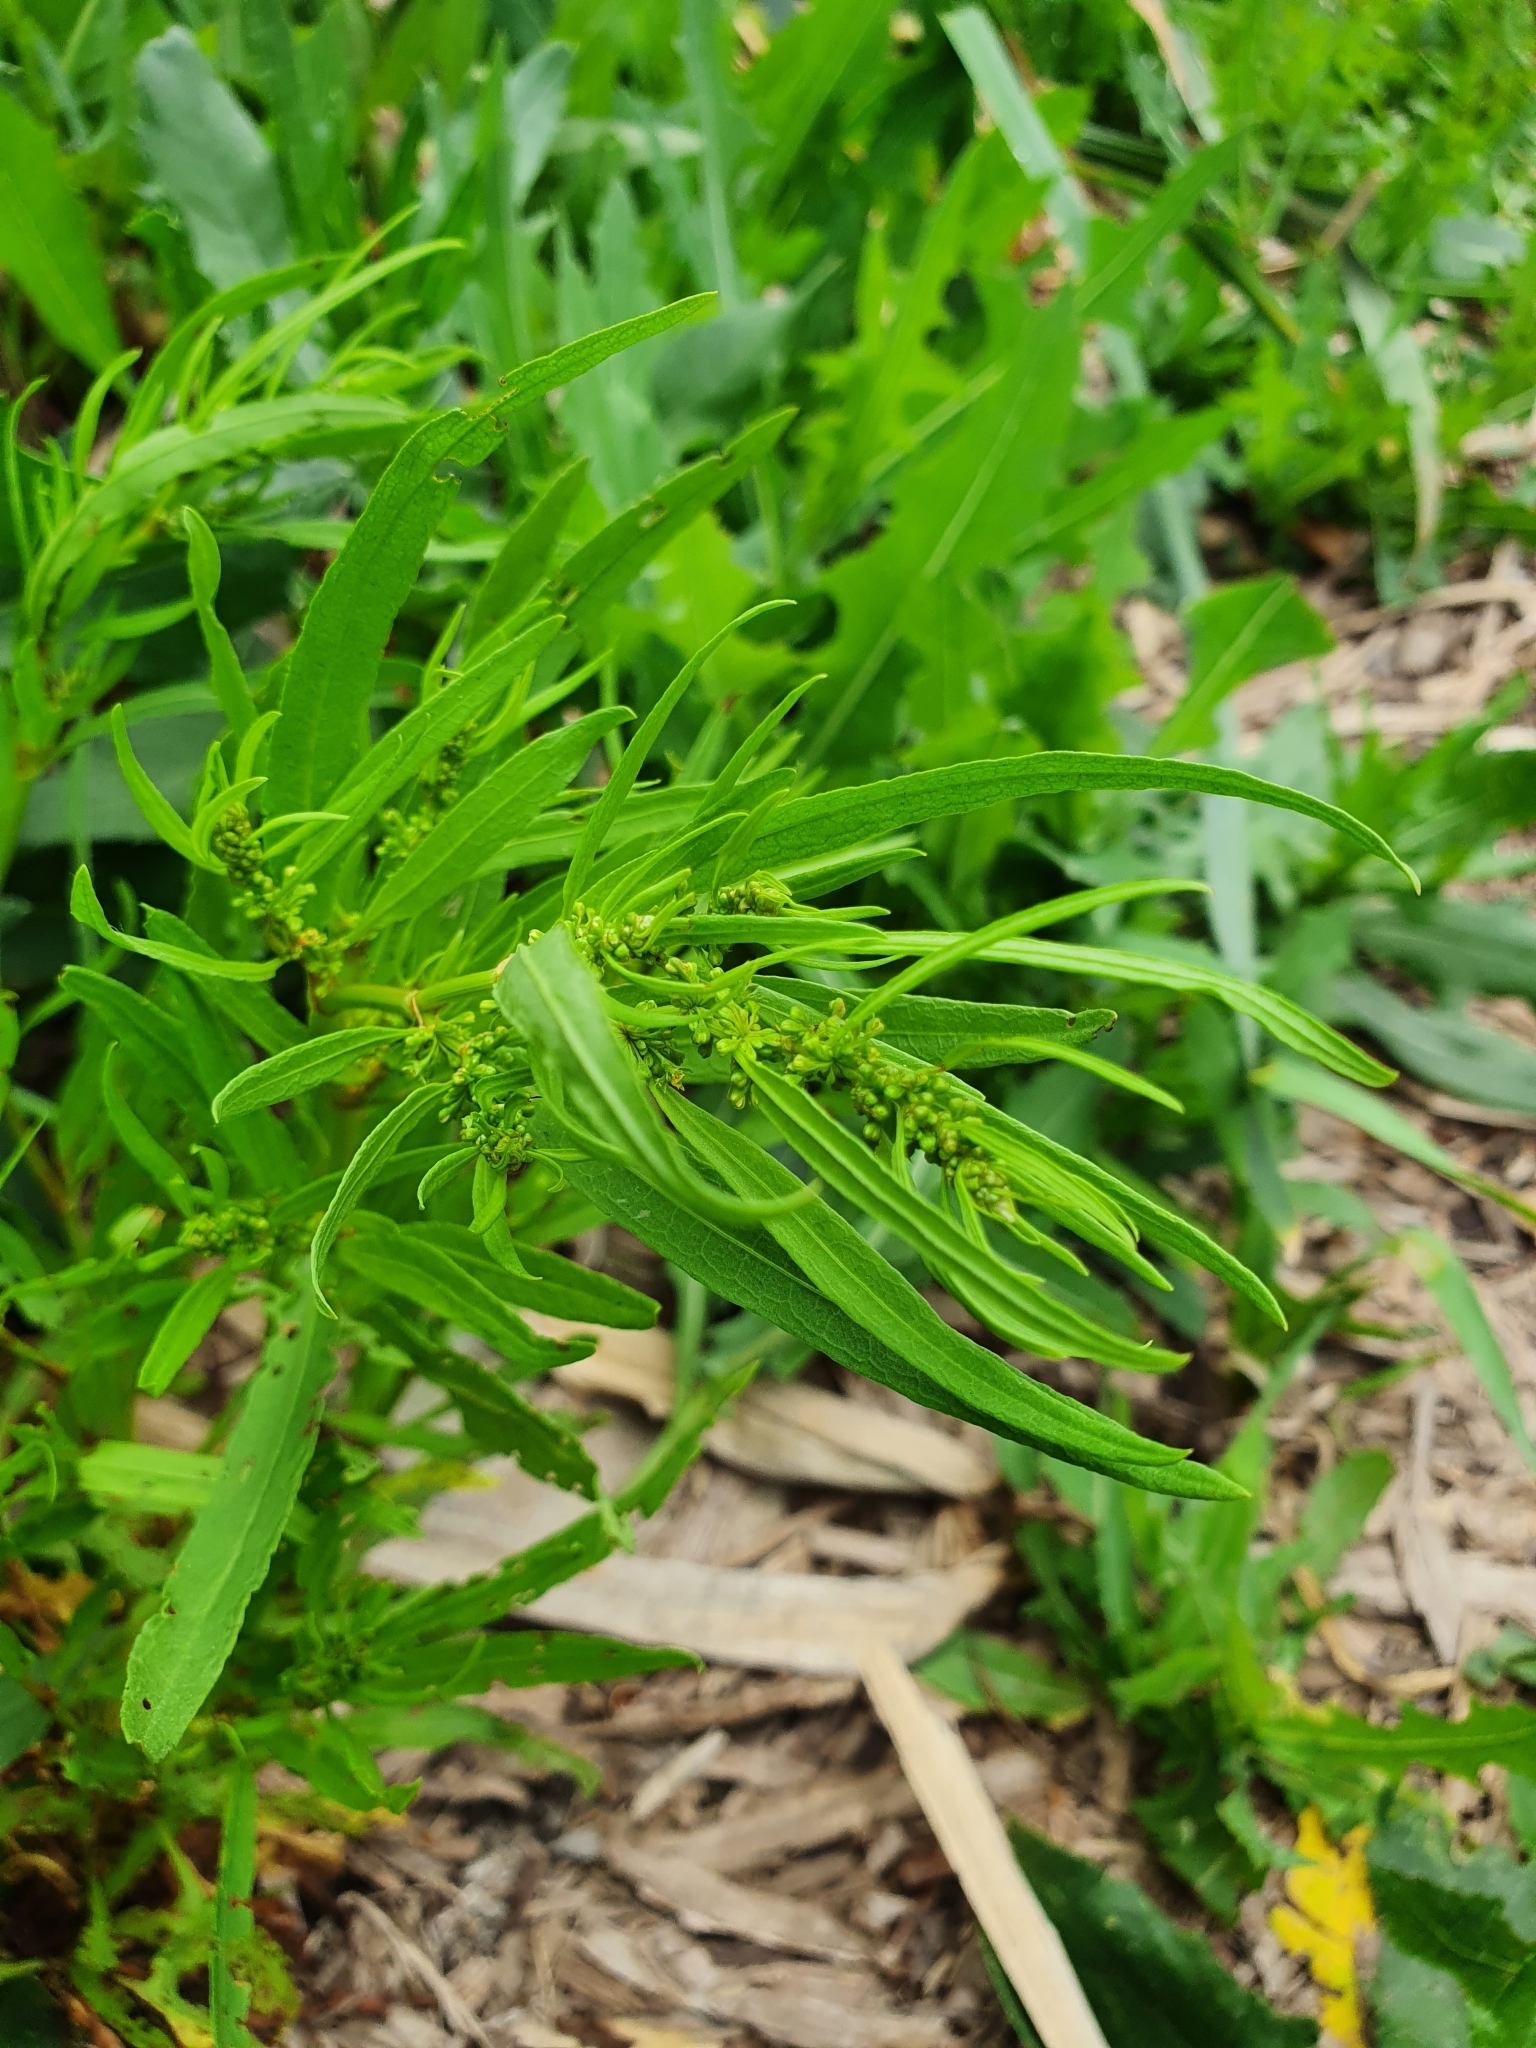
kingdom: Plantae
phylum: Tracheophyta
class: Magnoliopsida
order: Caryophyllales
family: Polygonaceae
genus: Rumex
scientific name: Rumex rossicus
